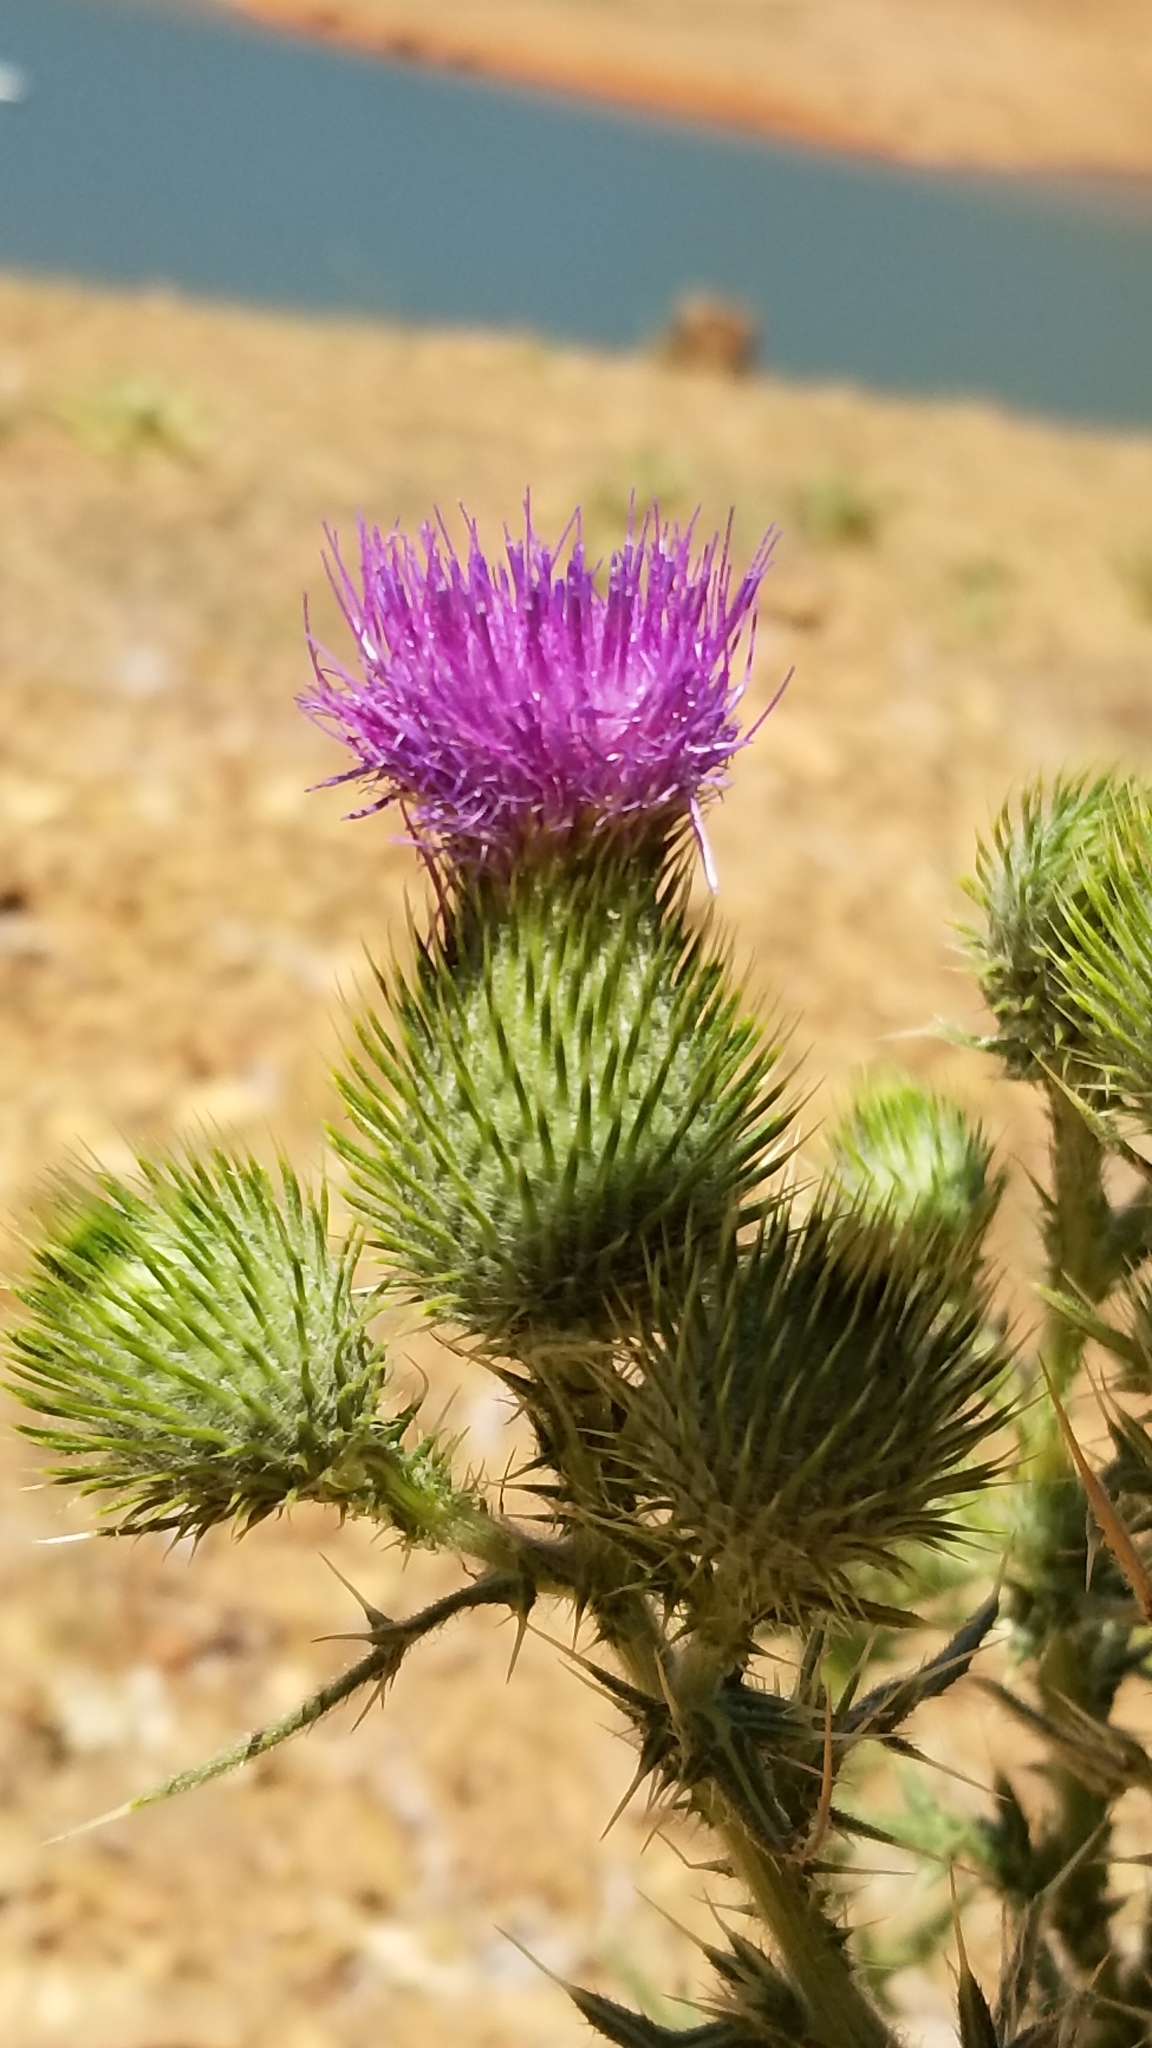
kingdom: Plantae
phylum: Tracheophyta
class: Magnoliopsida
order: Asterales
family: Asteraceae
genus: Cirsium
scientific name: Cirsium vulgare
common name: Bull thistle
